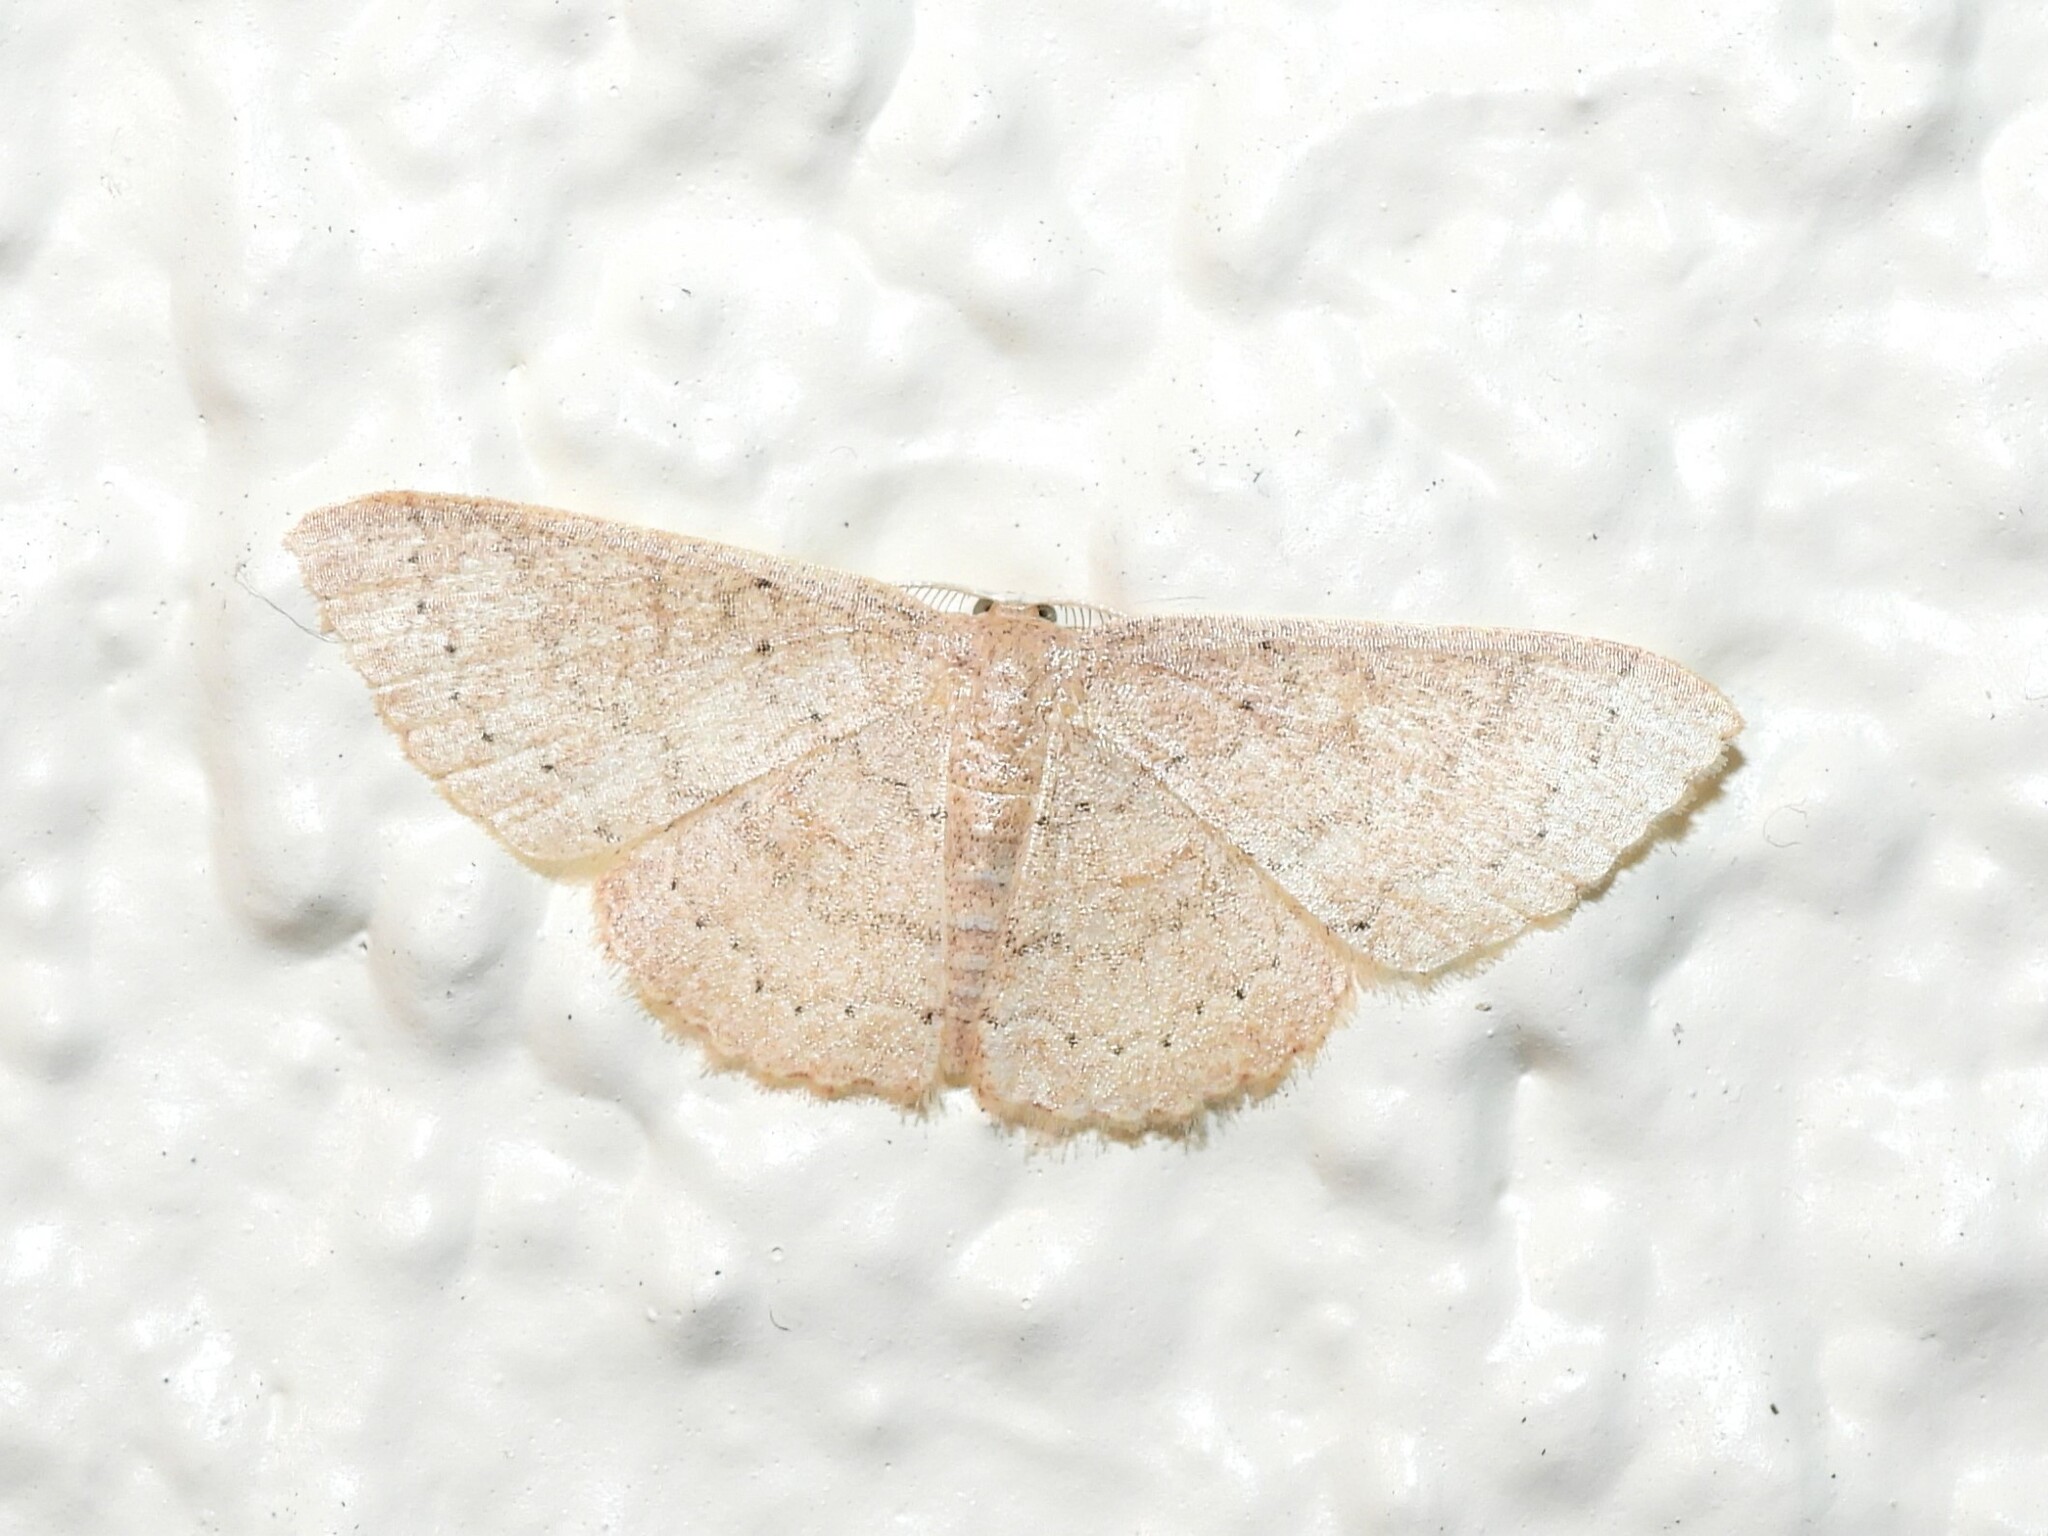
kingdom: Animalia
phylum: Arthropoda
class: Insecta
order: Lepidoptera
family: Geometridae
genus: Pleuroprucha
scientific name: Pleuroprucha insulsaria
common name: Common tan wave
